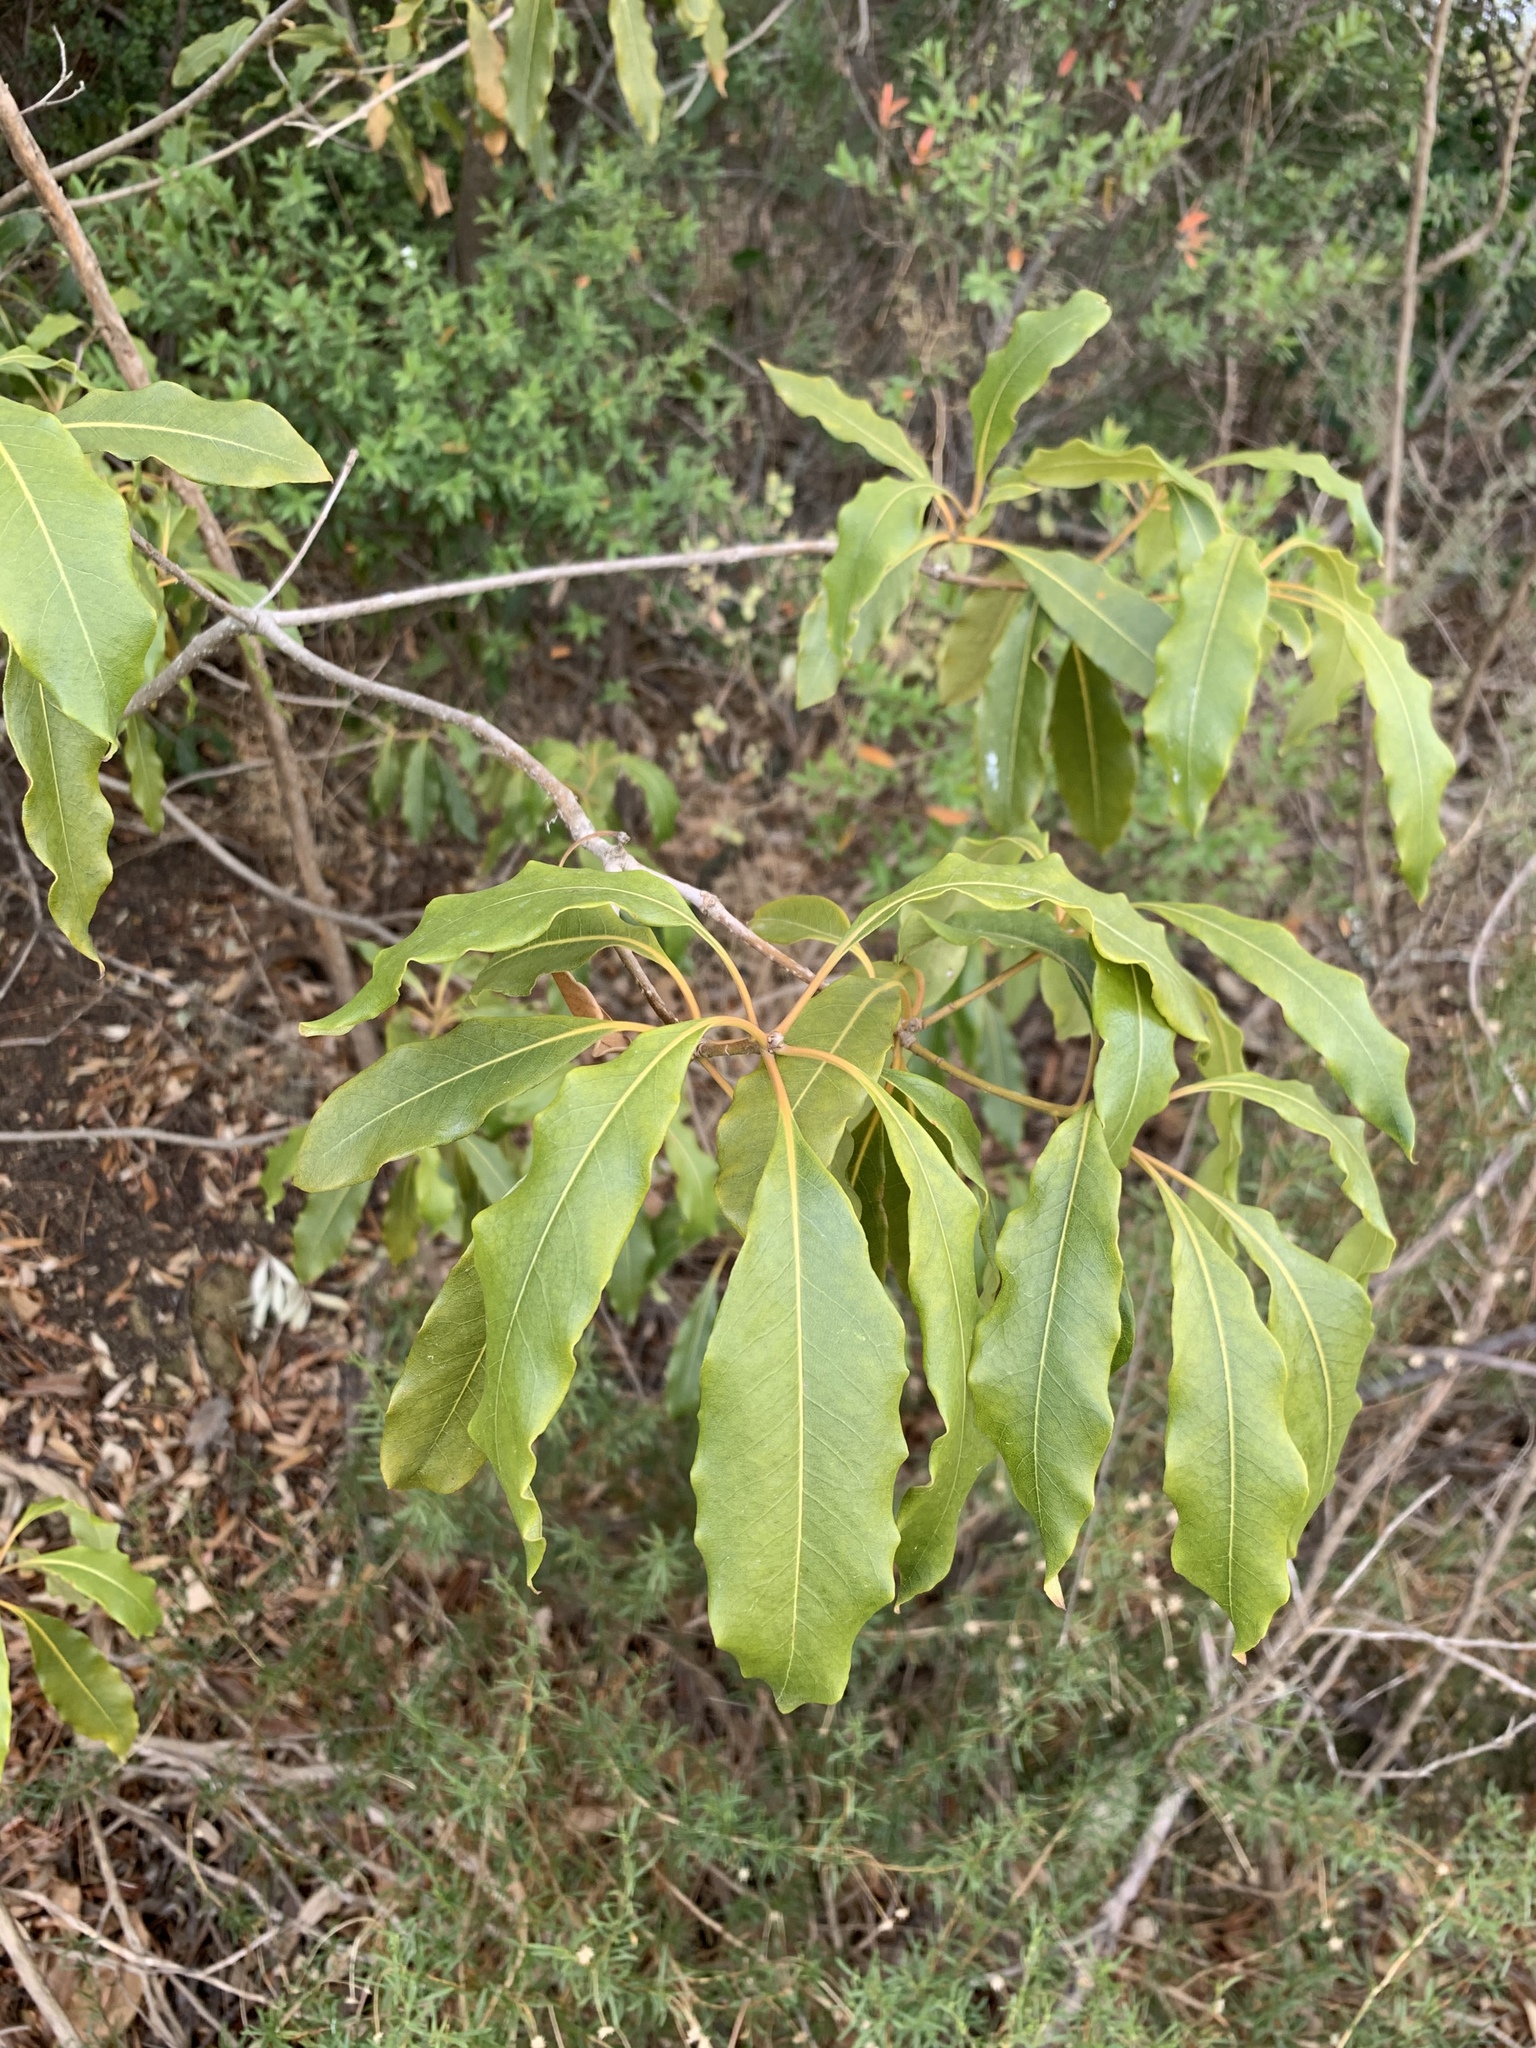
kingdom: Plantae
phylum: Tracheophyta
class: Magnoliopsida
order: Apiales
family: Pittosporaceae
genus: Pittosporum
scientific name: Pittosporum undulatum
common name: Australian cheesewood
